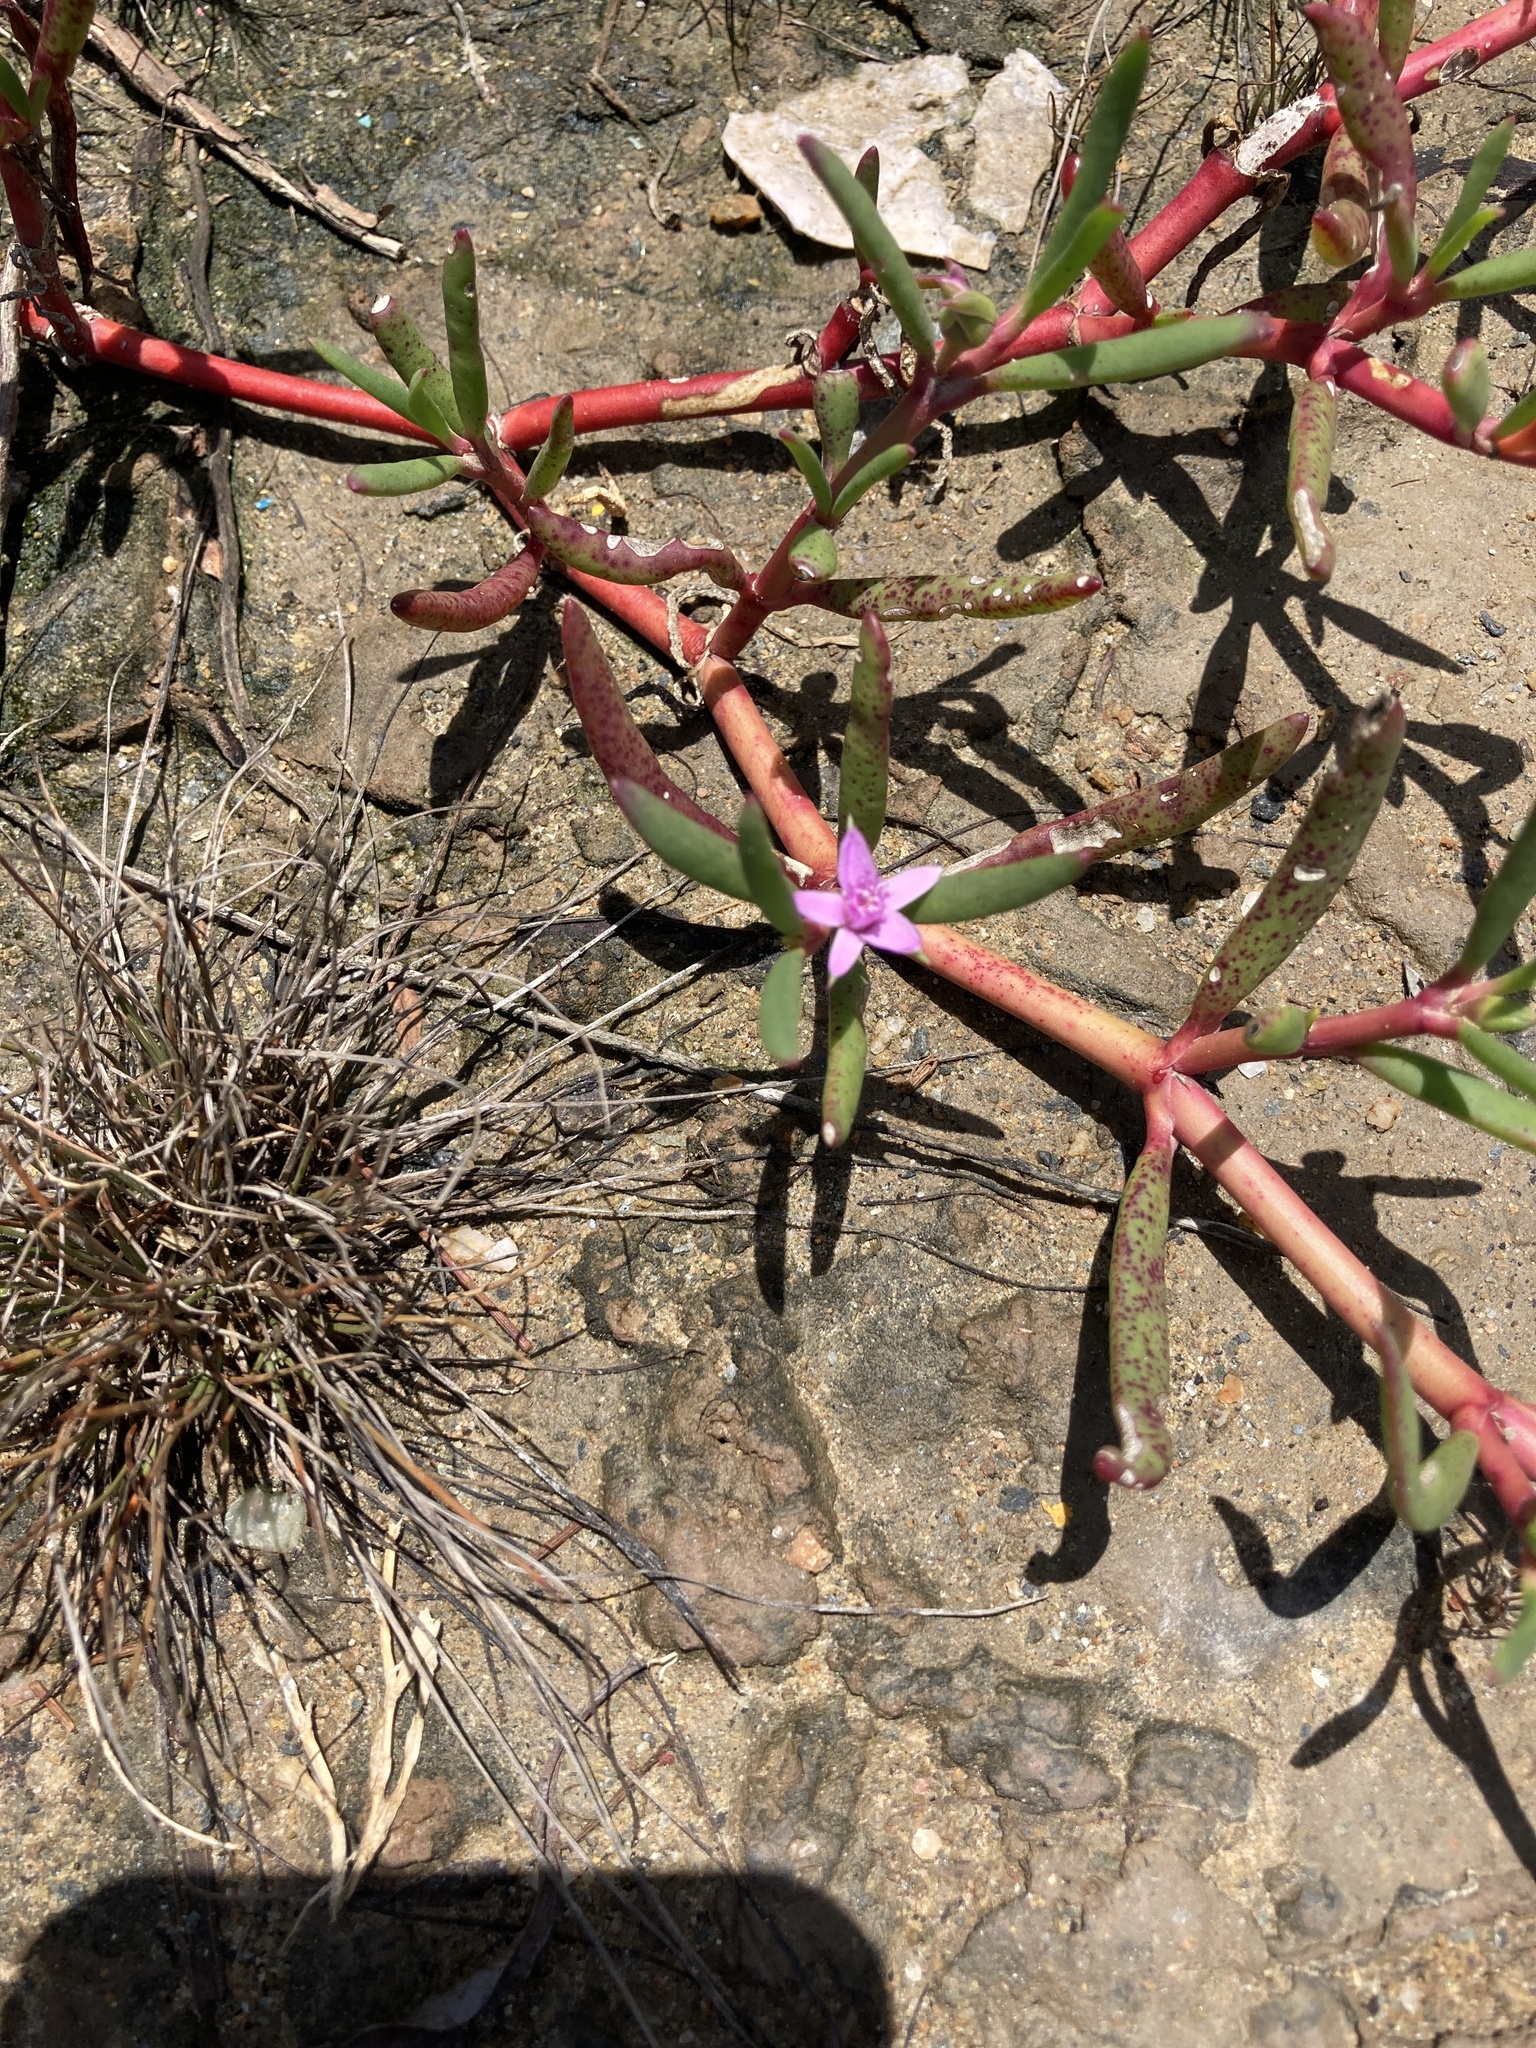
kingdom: Plantae
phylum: Tracheophyta
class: Magnoliopsida
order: Caryophyllales
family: Aizoaceae
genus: Sesuvium
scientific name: Sesuvium portulacastrum
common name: Sea-purslane
